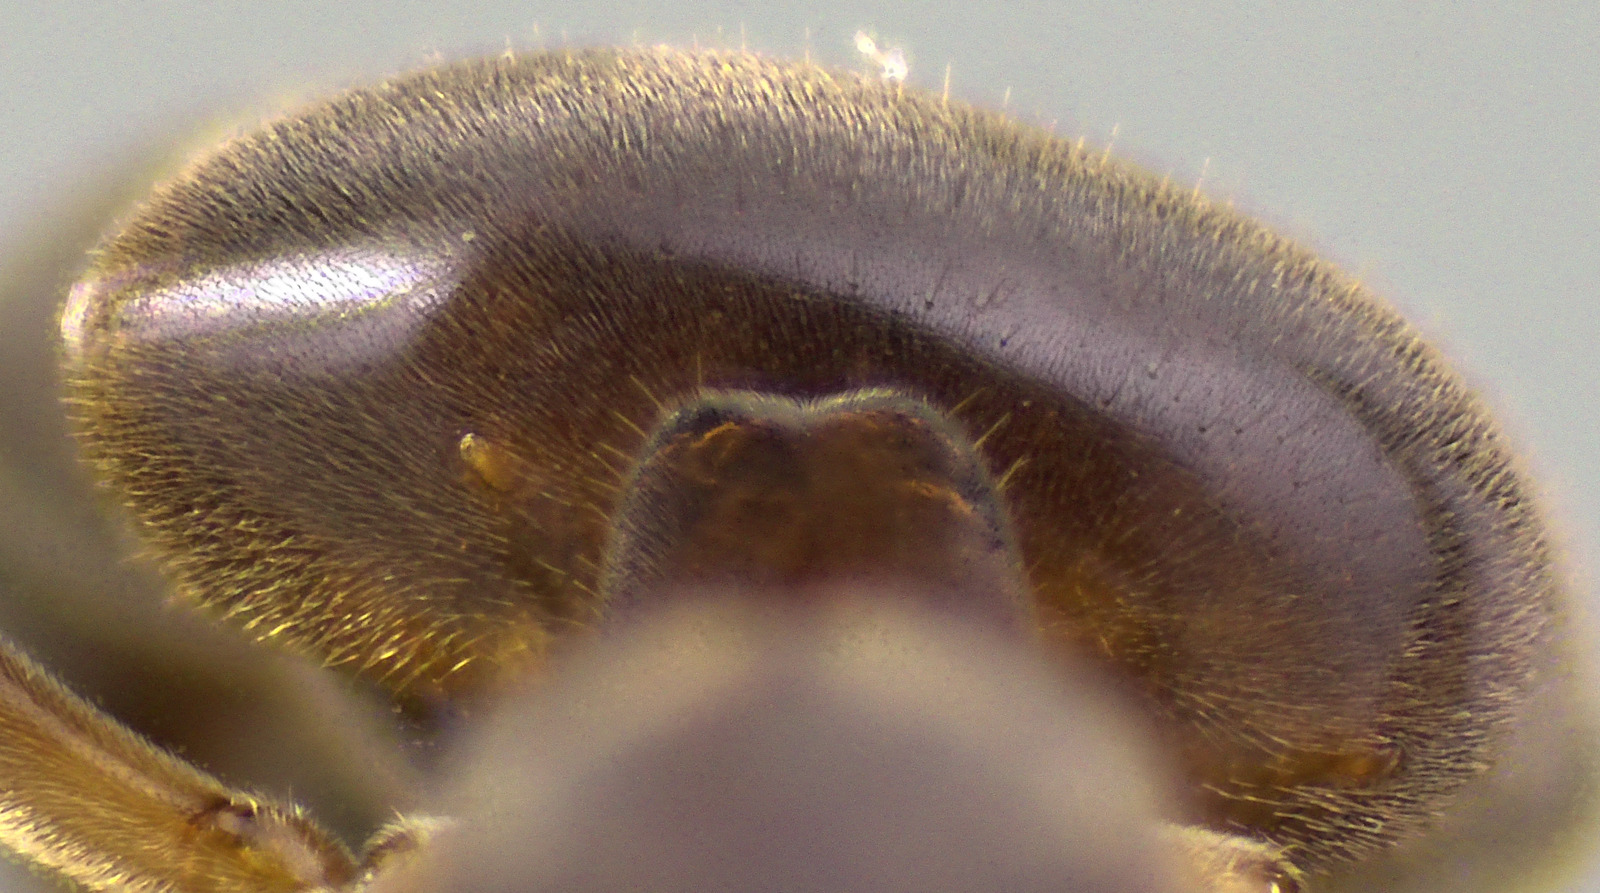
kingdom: Animalia
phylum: Arthropoda
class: Insecta
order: Hymenoptera
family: Formicidae
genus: Lasius
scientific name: Lasius aphidicola
